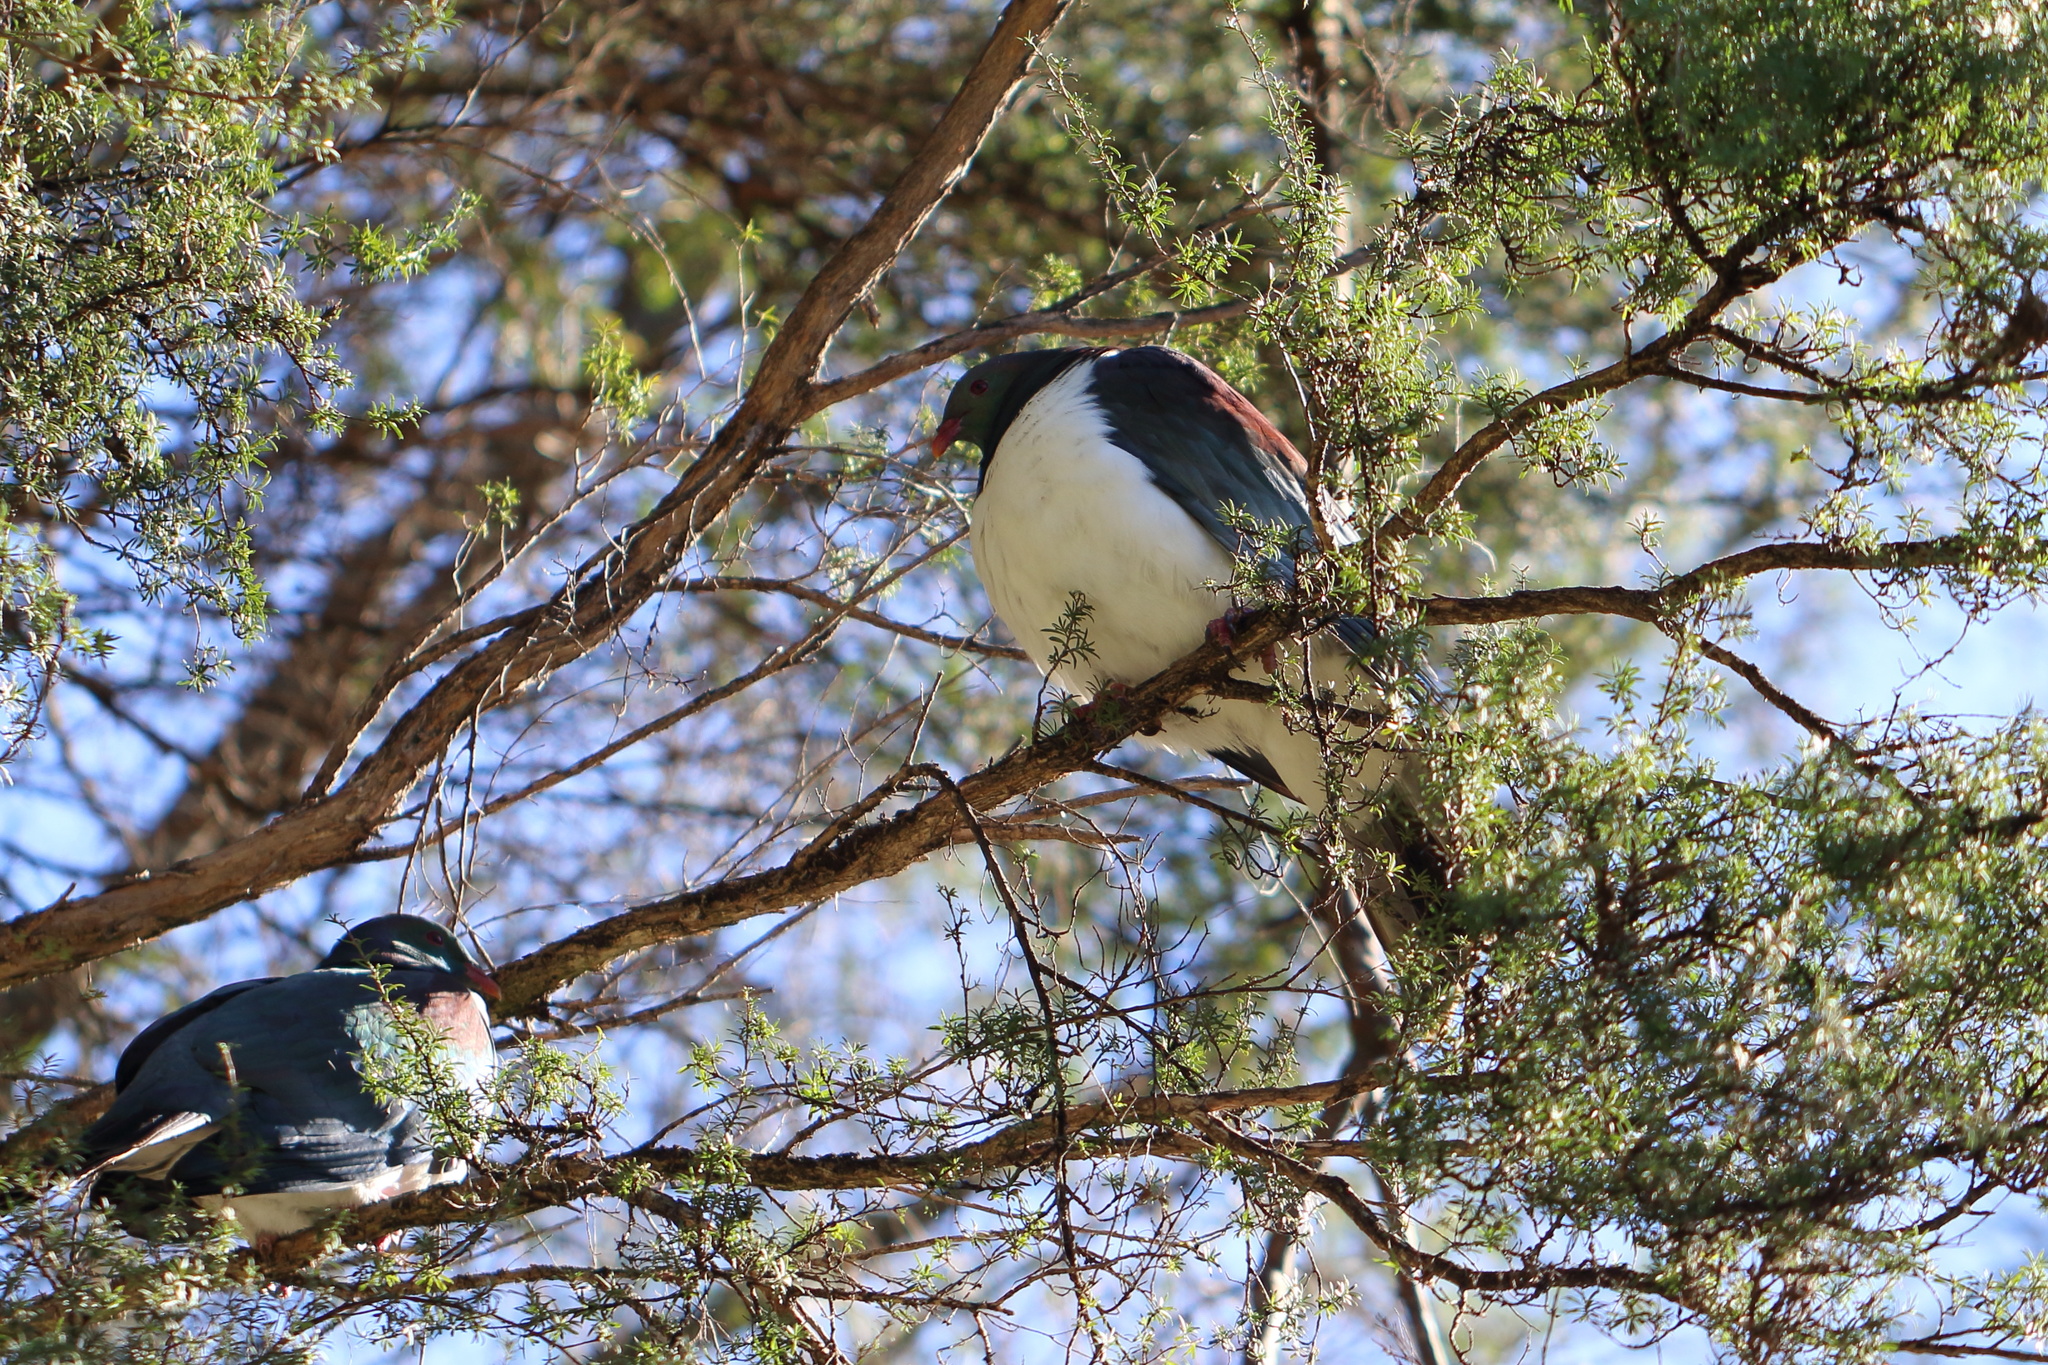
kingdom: Animalia
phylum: Chordata
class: Aves
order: Columbiformes
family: Columbidae
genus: Hemiphaga
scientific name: Hemiphaga novaeseelandiae
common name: New zealand pigeon
